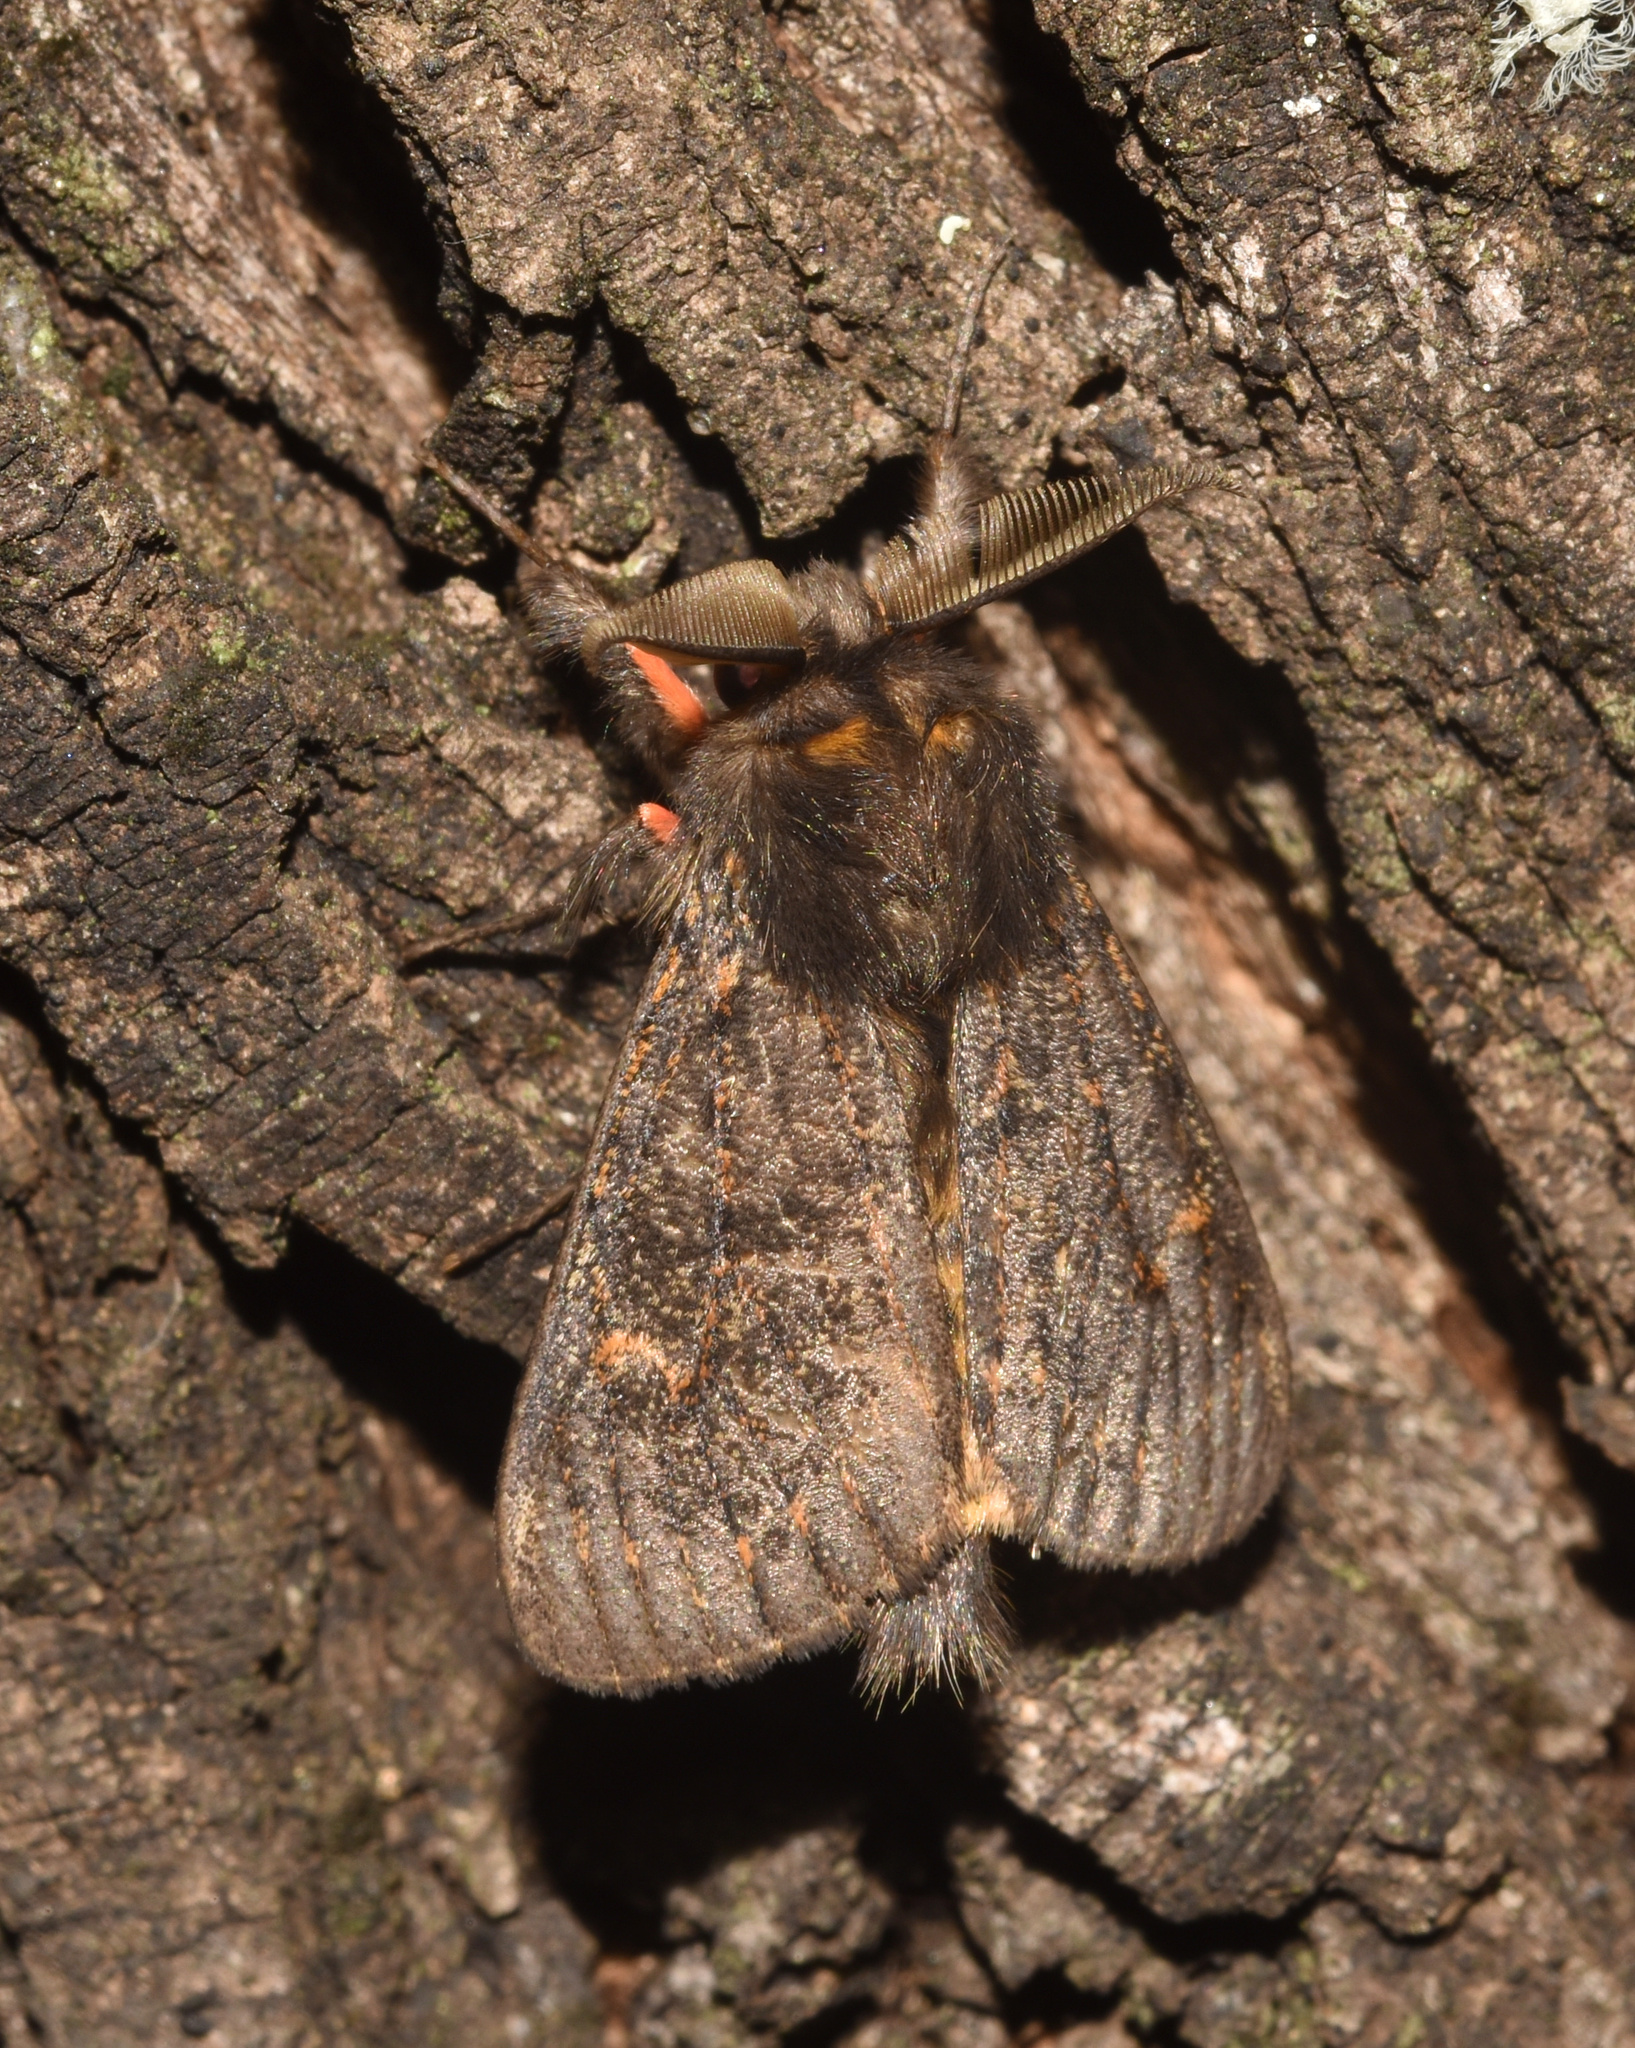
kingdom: Animalia
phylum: Arthropoda
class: Insecta
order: Lepidoptera
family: Erebidae
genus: Polymona
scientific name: Polymona rufifemur
